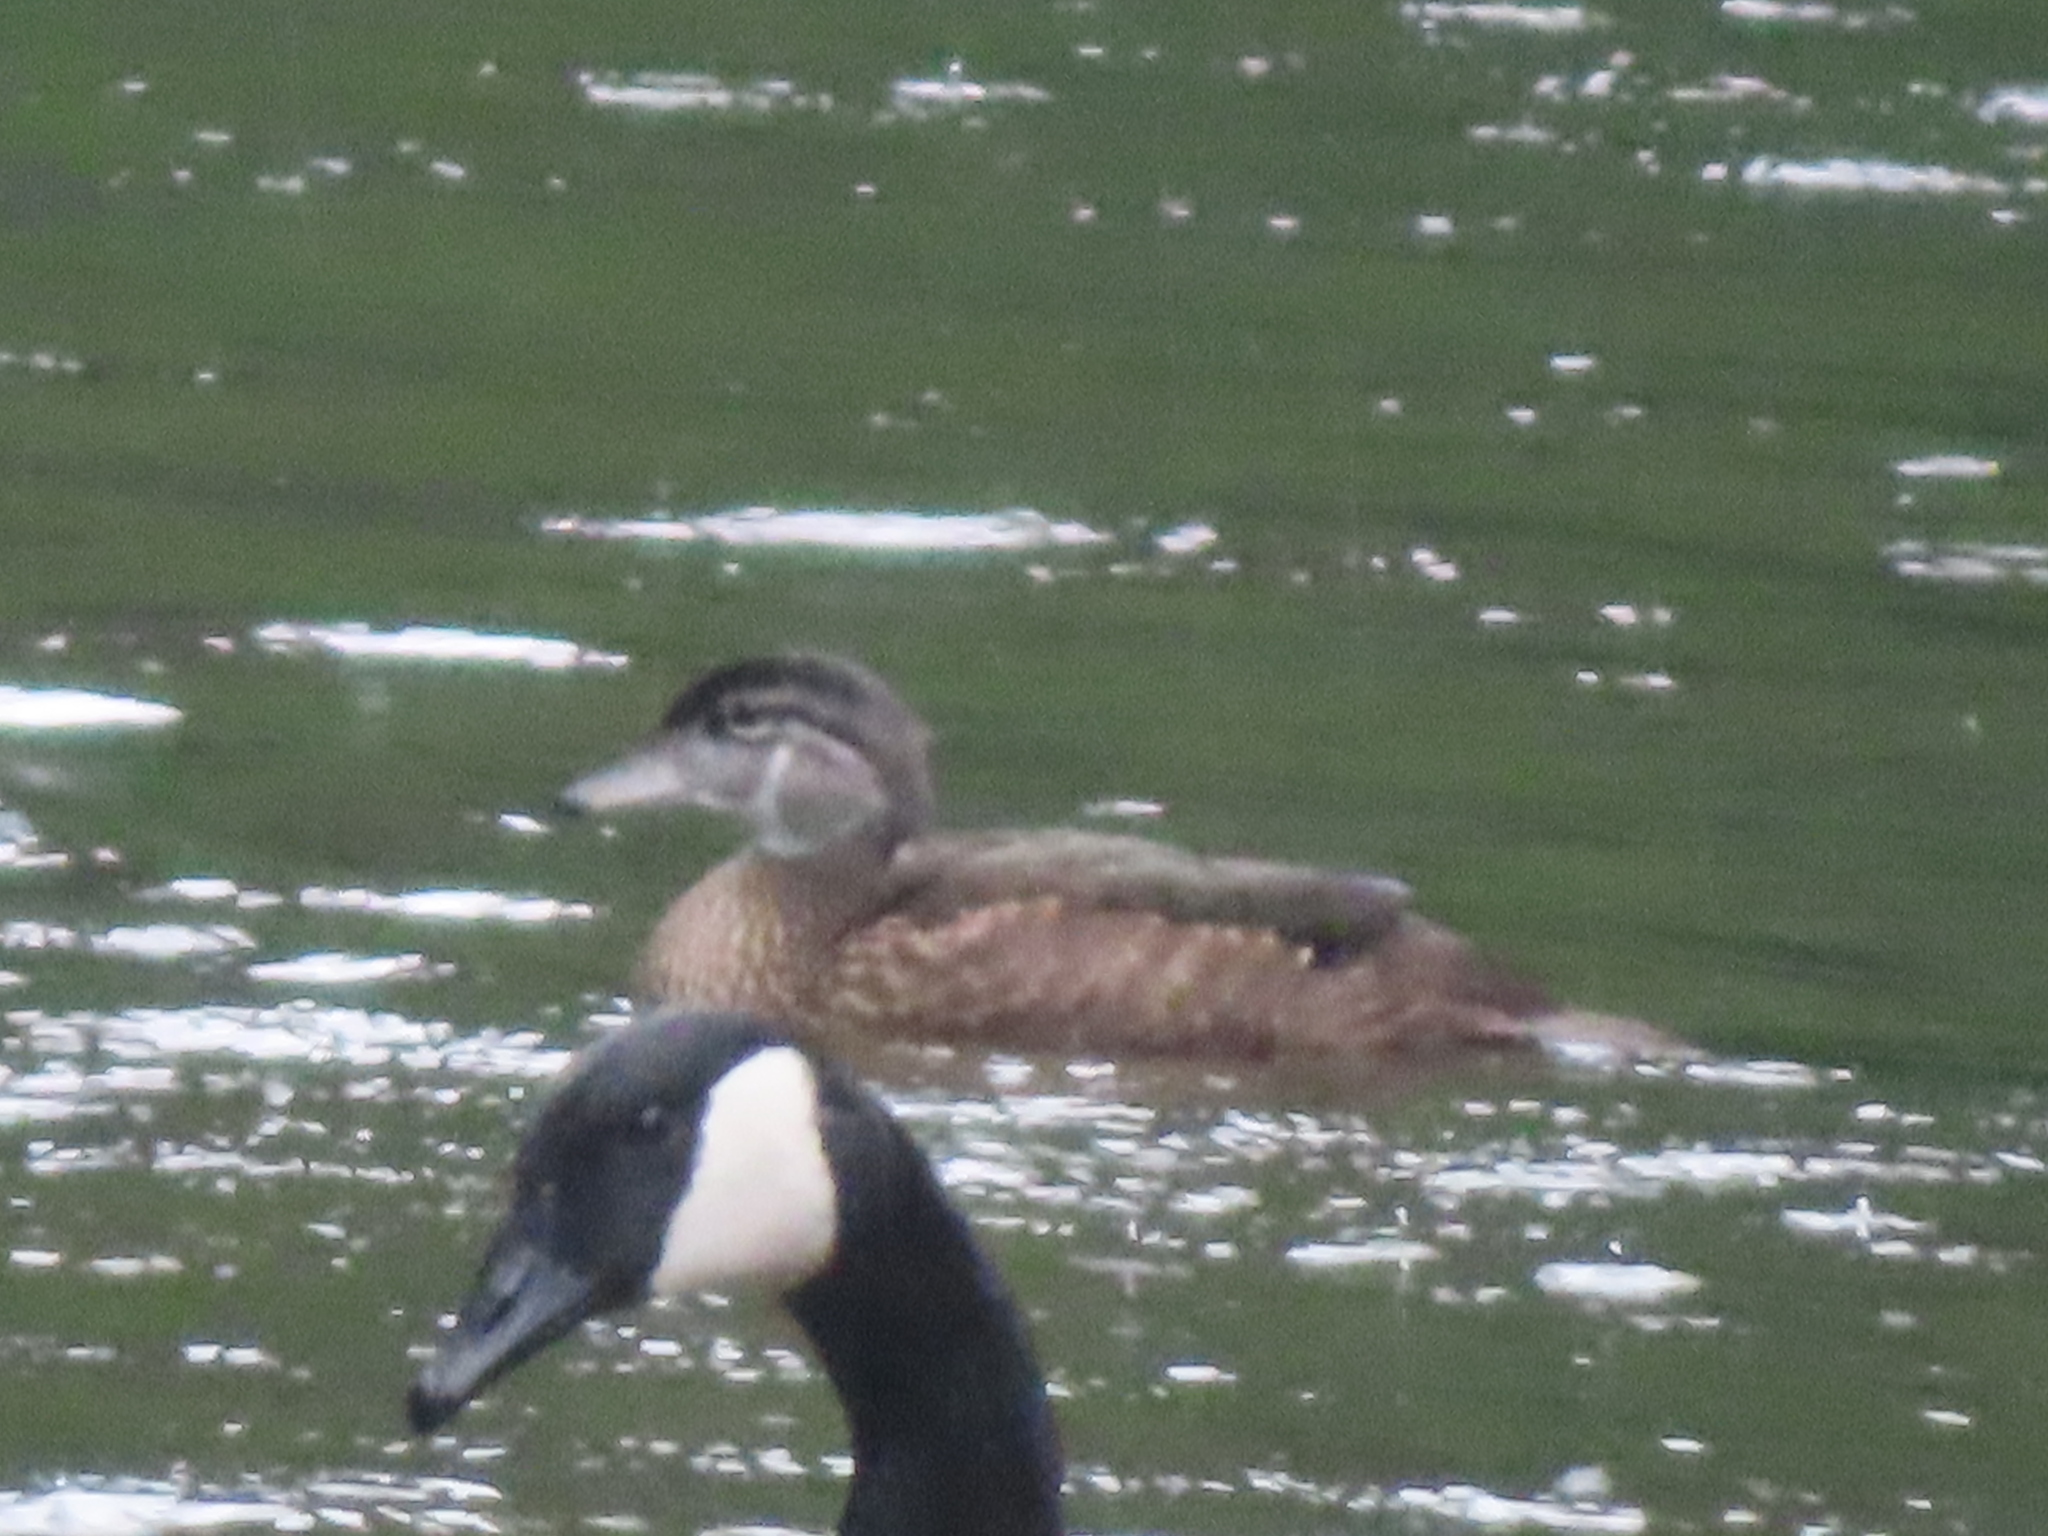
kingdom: Animalia
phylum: Chordata
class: Aves
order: Anseriformes
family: Anatidae
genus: Aix
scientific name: Aix sponsa
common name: Wood duck
